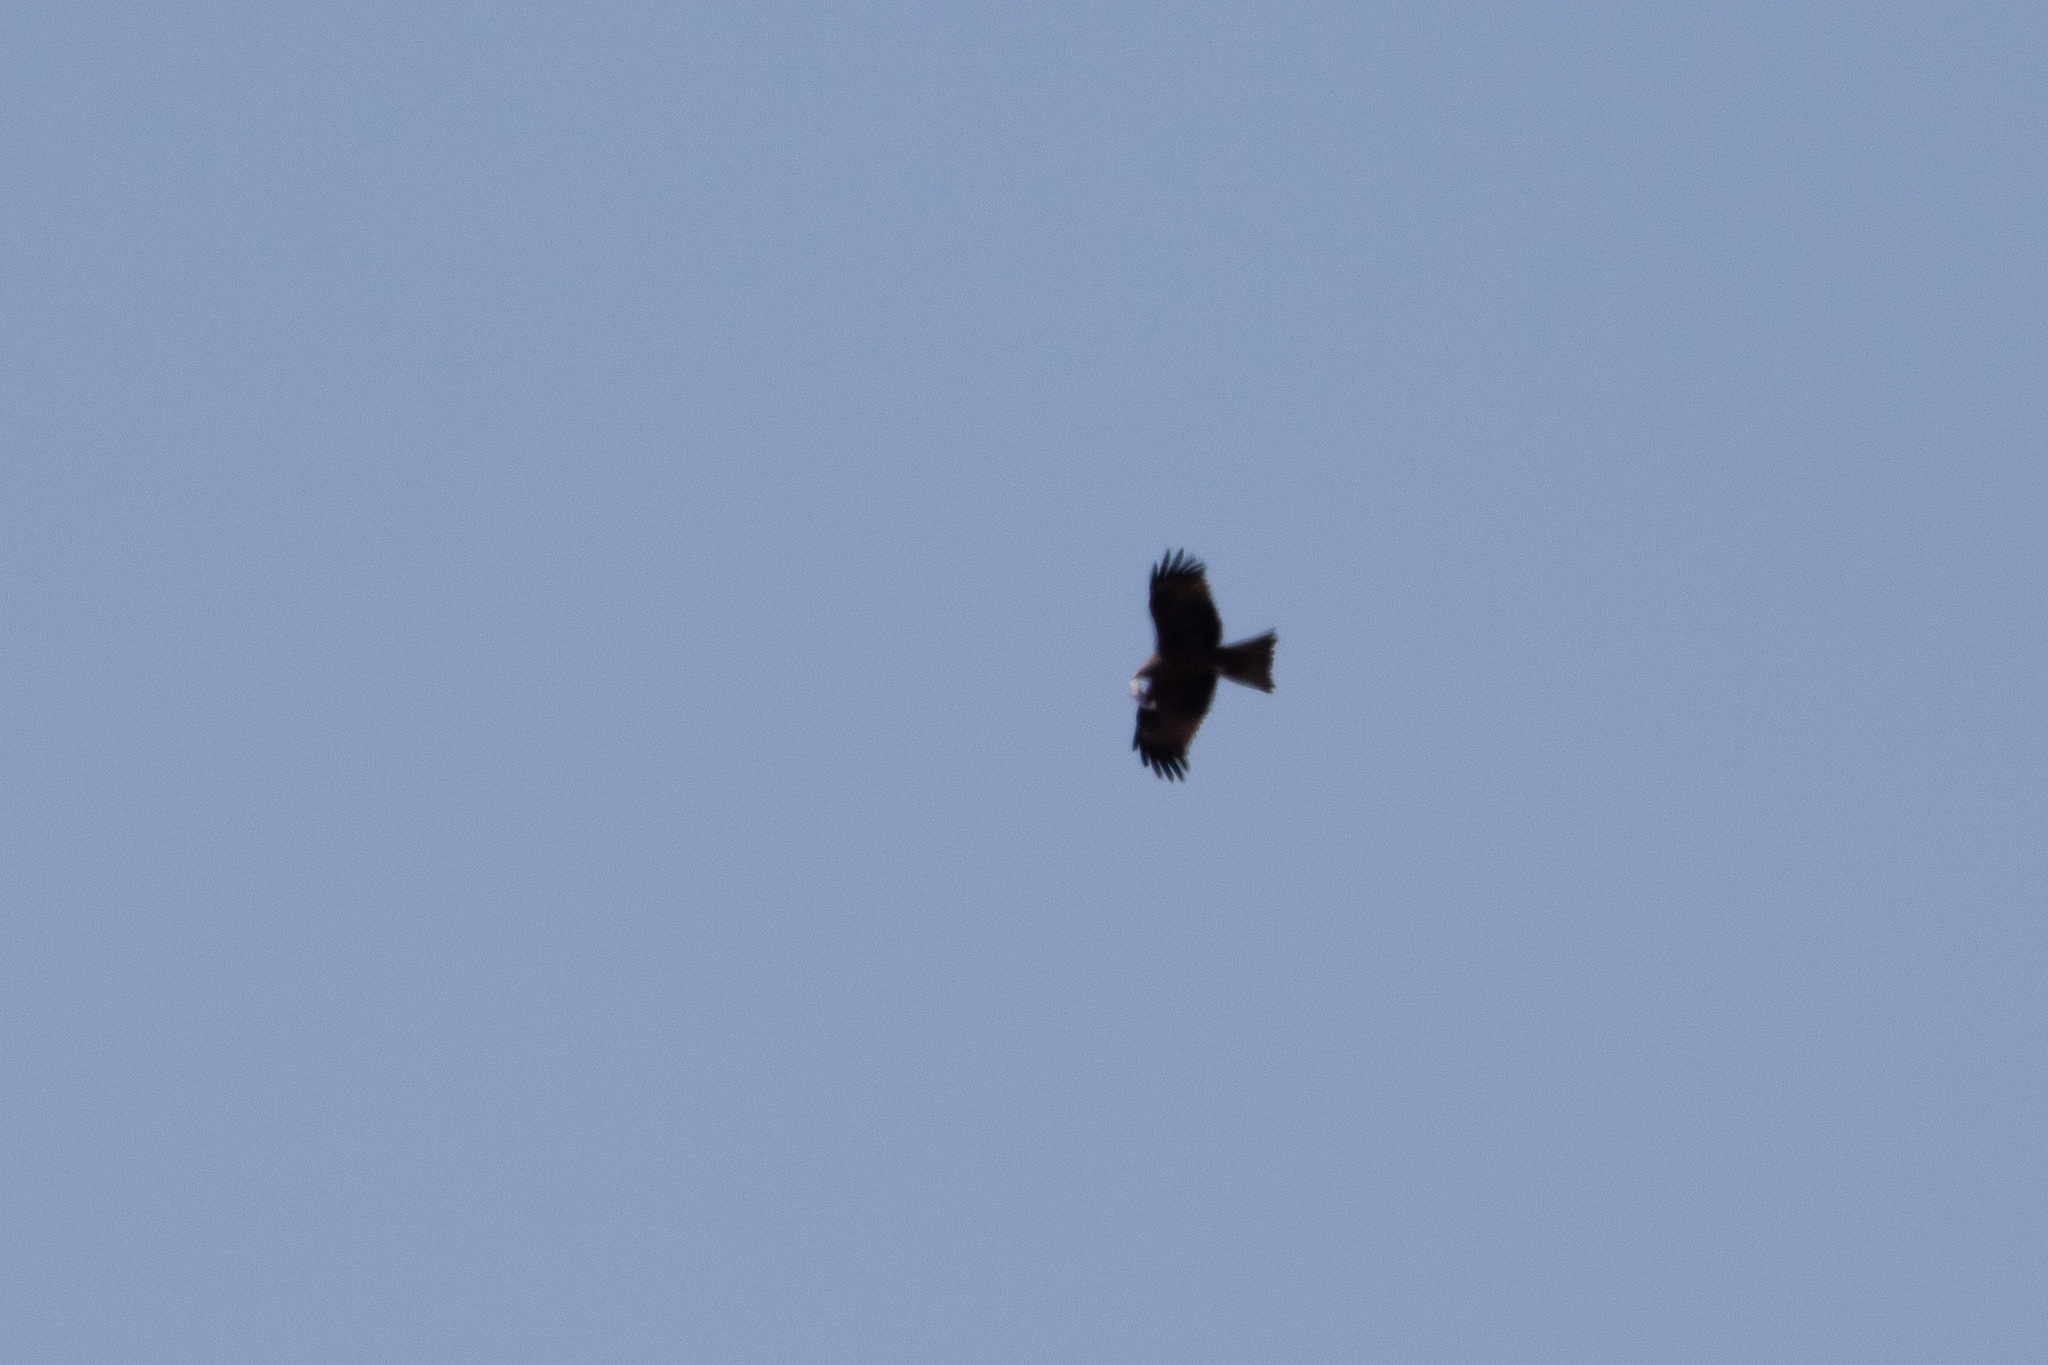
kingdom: Animalia
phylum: Chordata
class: Aves
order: Accipitriformes
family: Accipitridae
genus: Milvus
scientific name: Milvus migrans
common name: Black kite
